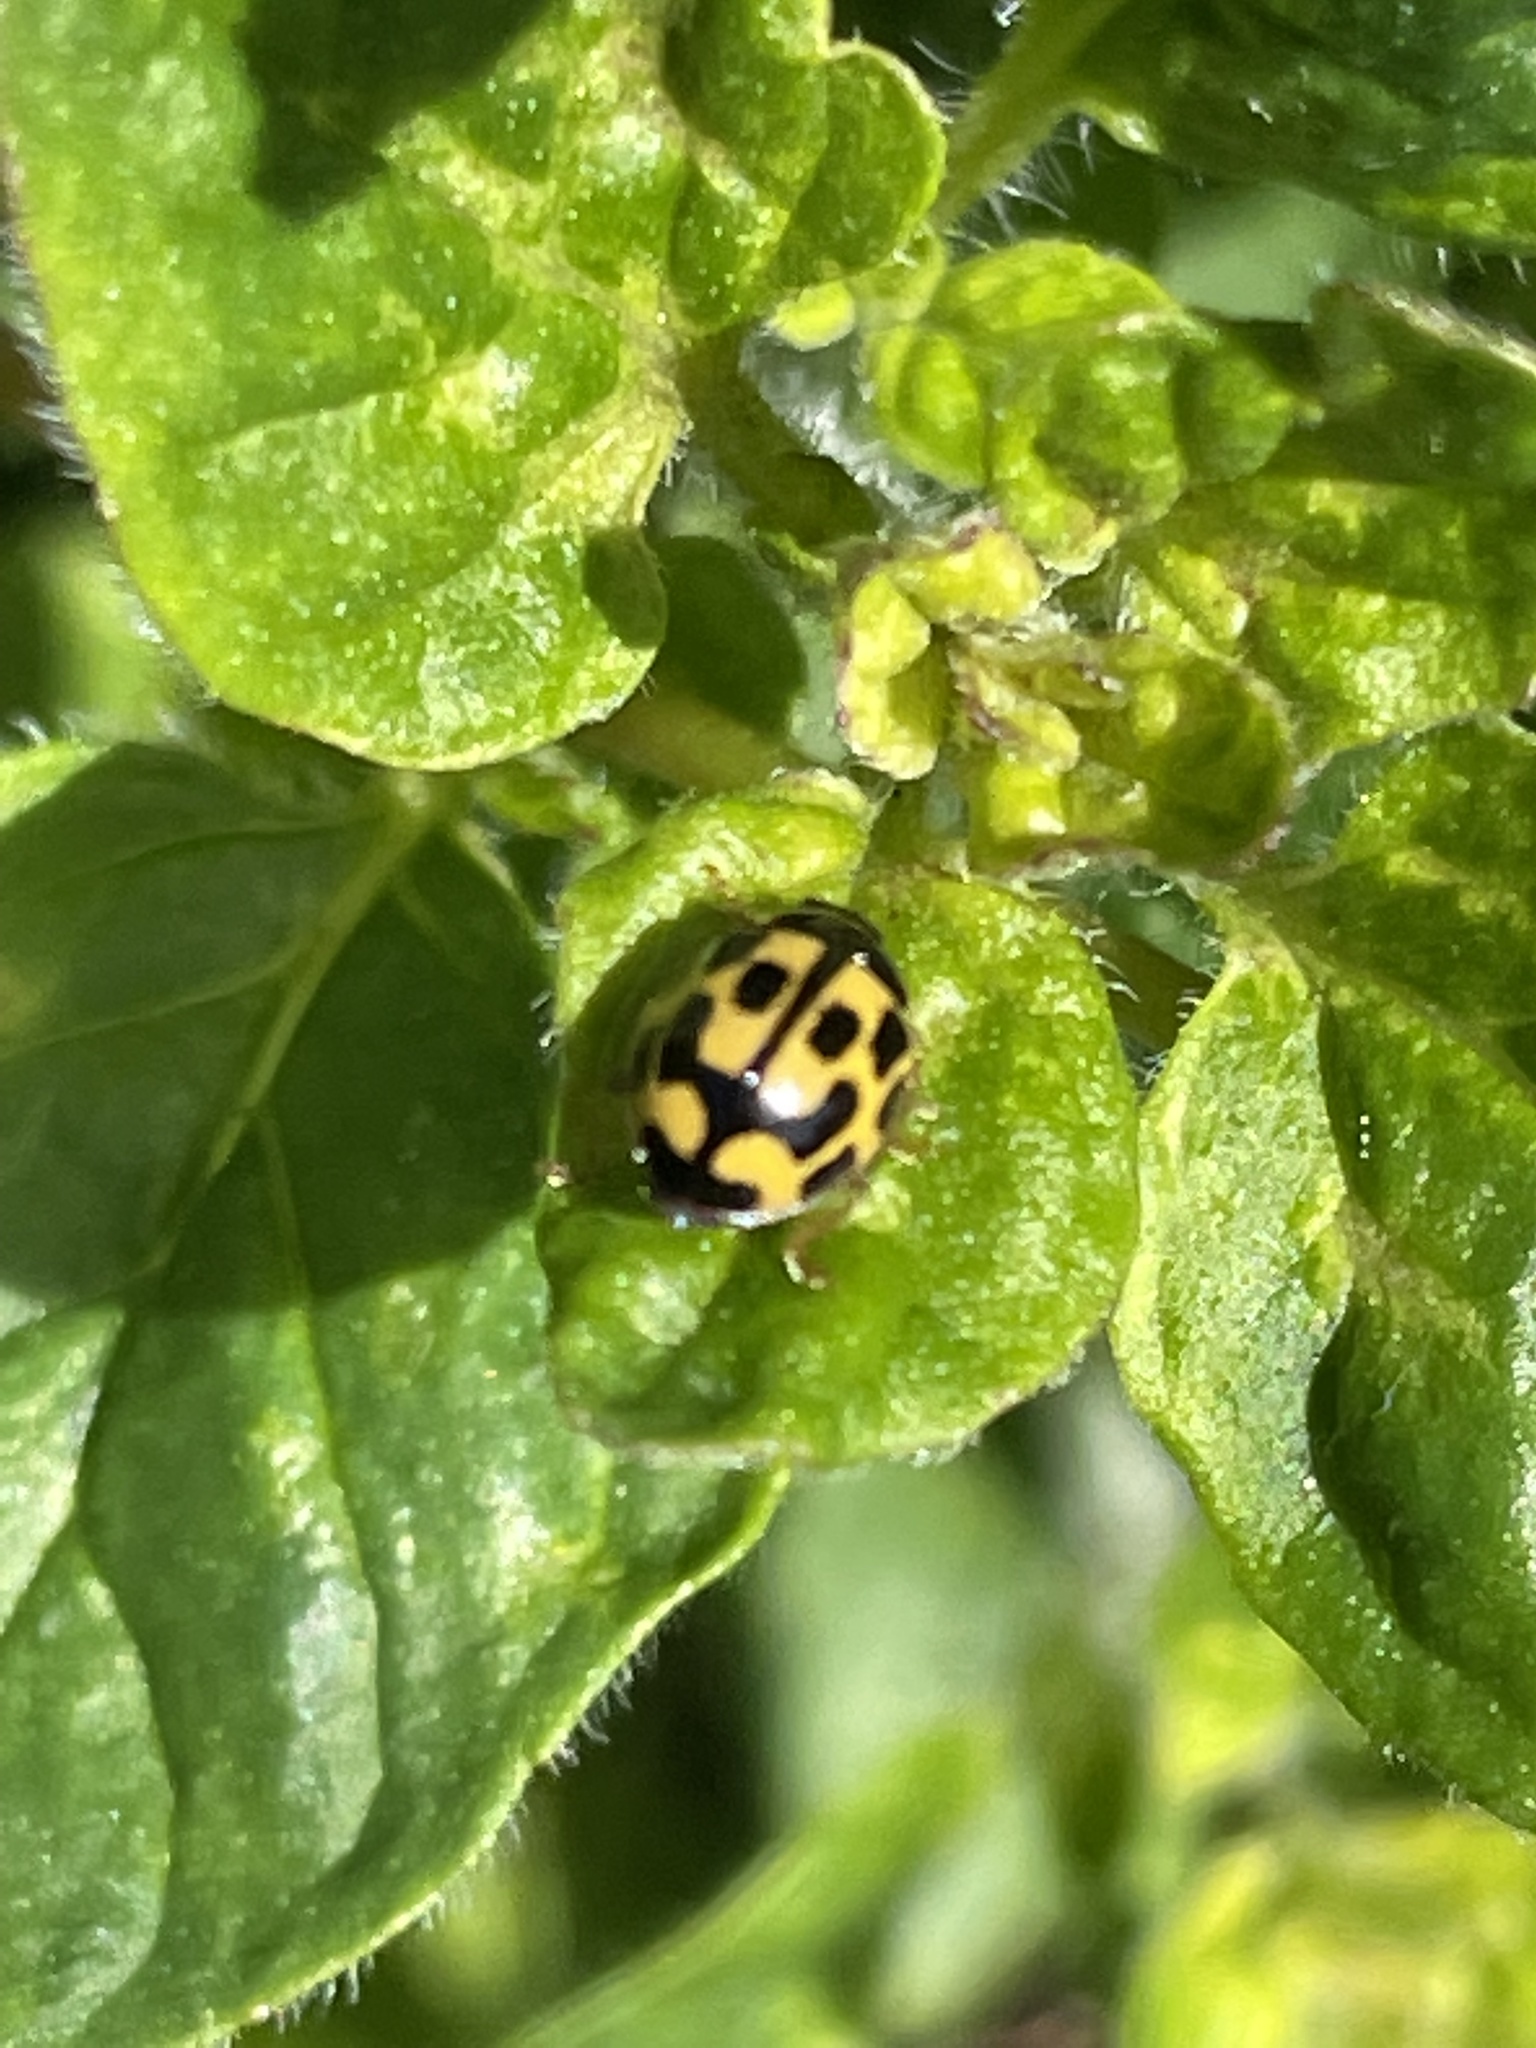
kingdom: Animalia
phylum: Arthropoda
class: Insecta
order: Coleoptera
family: Coccinellidae
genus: Propylaea
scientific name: Propylaea quatuordecimpunctata
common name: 14-spotted ladybird beetle
